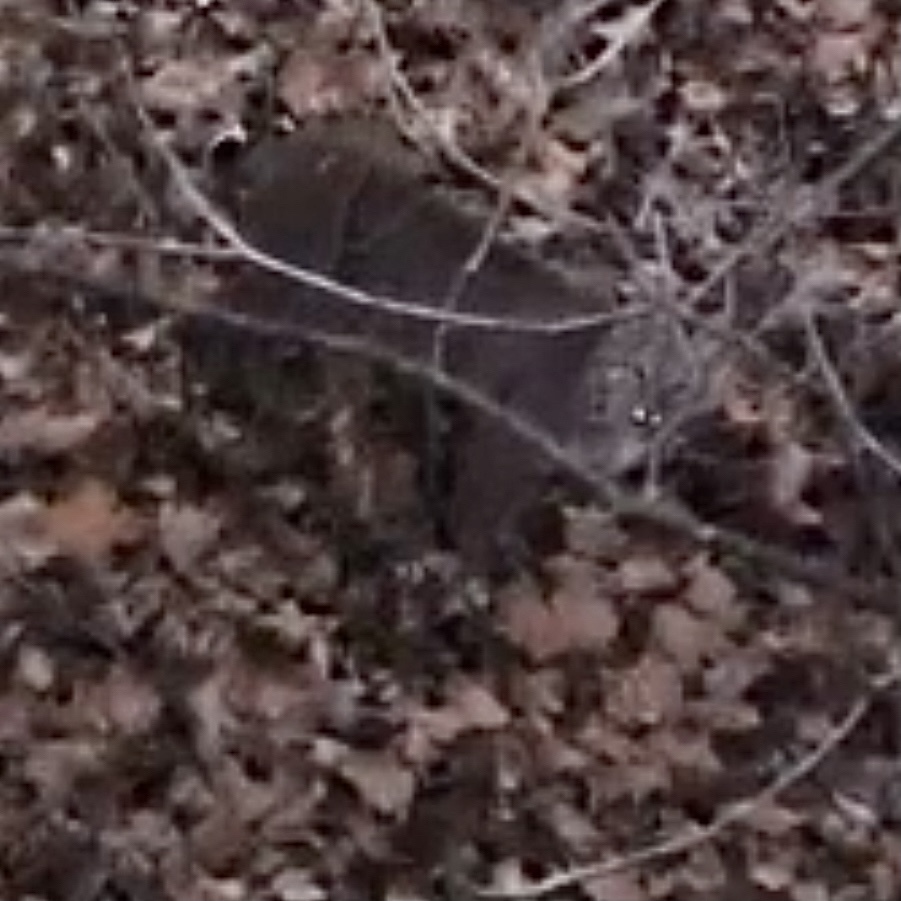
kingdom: Animalia
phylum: Chordata
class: Mammalia
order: Carnivora
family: Felidae
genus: Lynx
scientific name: Lynx rufus
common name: Bobcat
